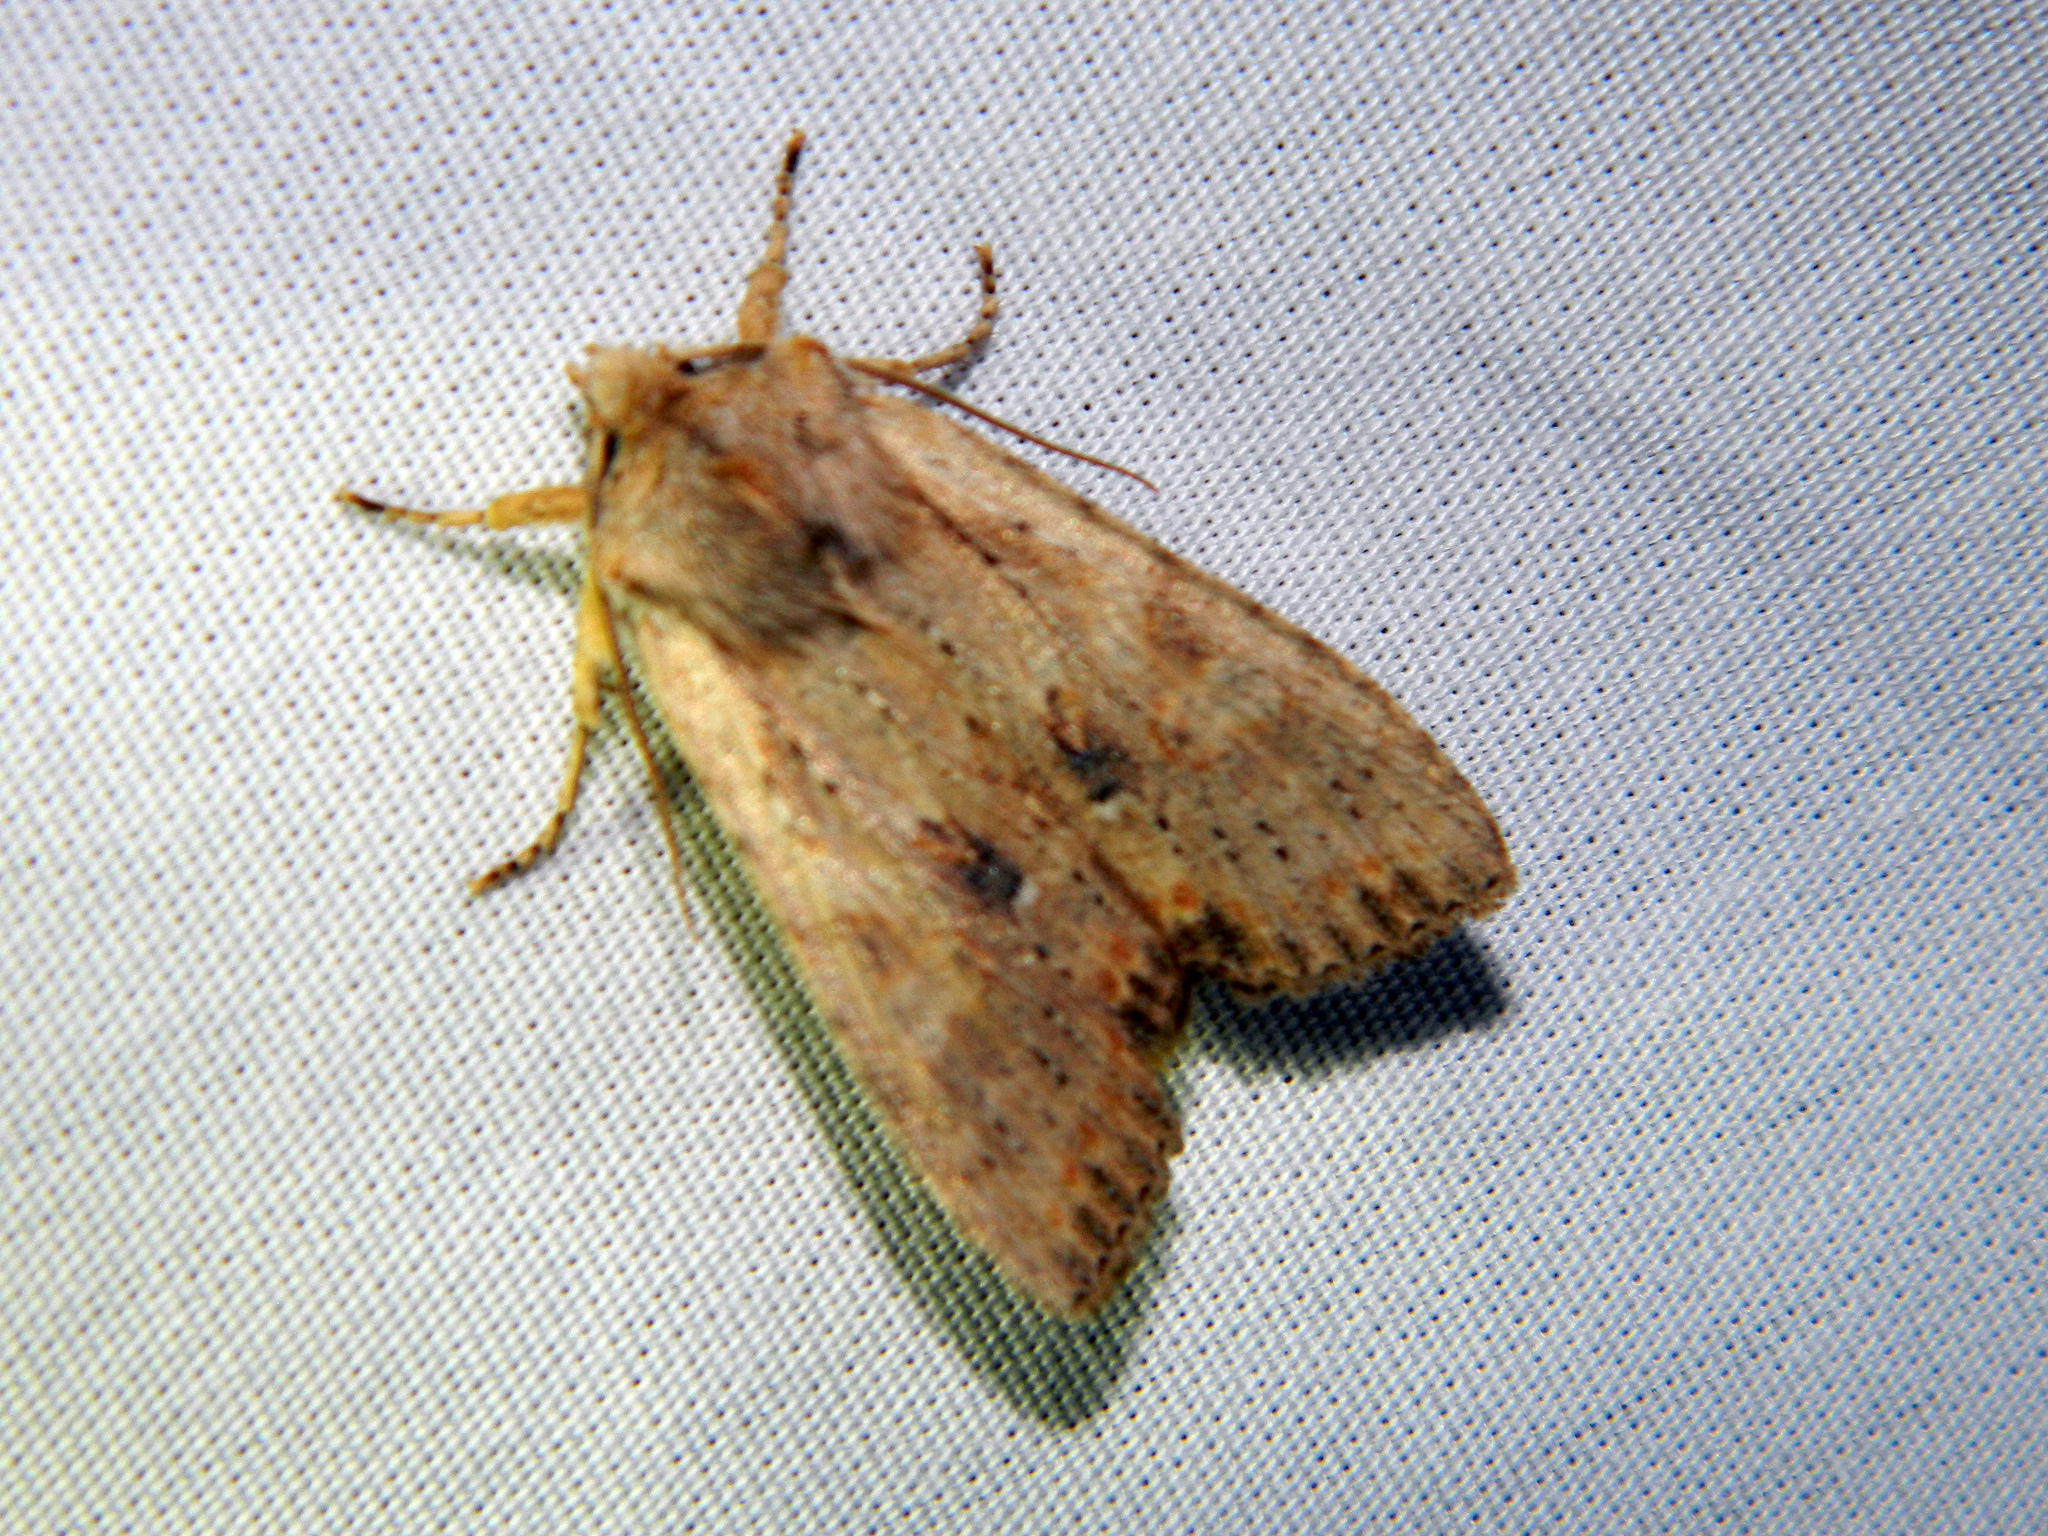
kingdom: Animalia
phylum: Arthropoda
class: Insecta
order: Lepidoptera
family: Noctuidae
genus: Lithophane
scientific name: Lithophane innominata
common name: Nameless pinion moth
